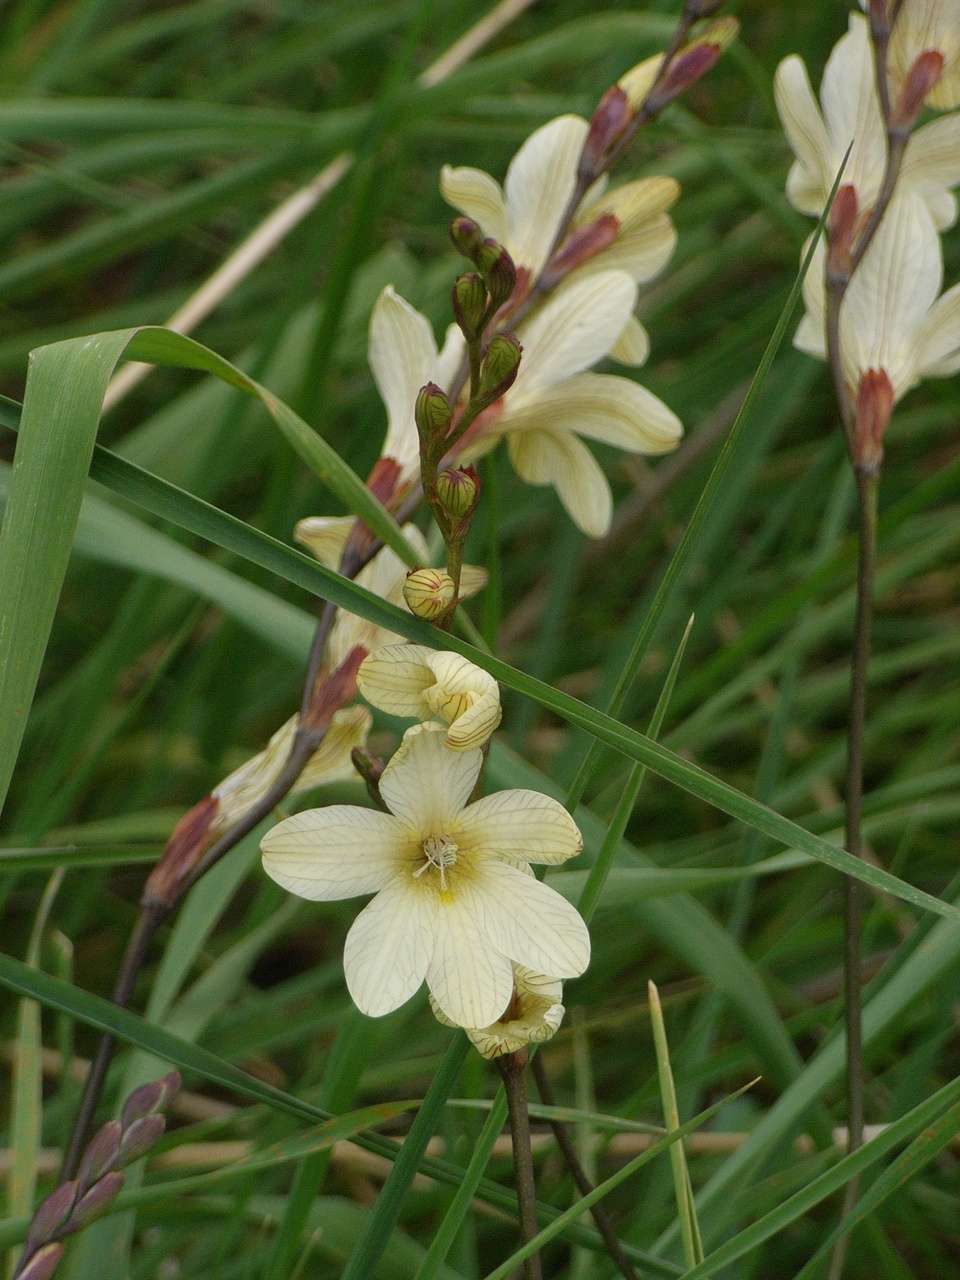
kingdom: Plantae
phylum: Tracheophyta
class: Liliopsida
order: Asparagales
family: Iridaceae
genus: Tritonia
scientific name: Tritonia gladiolaris
